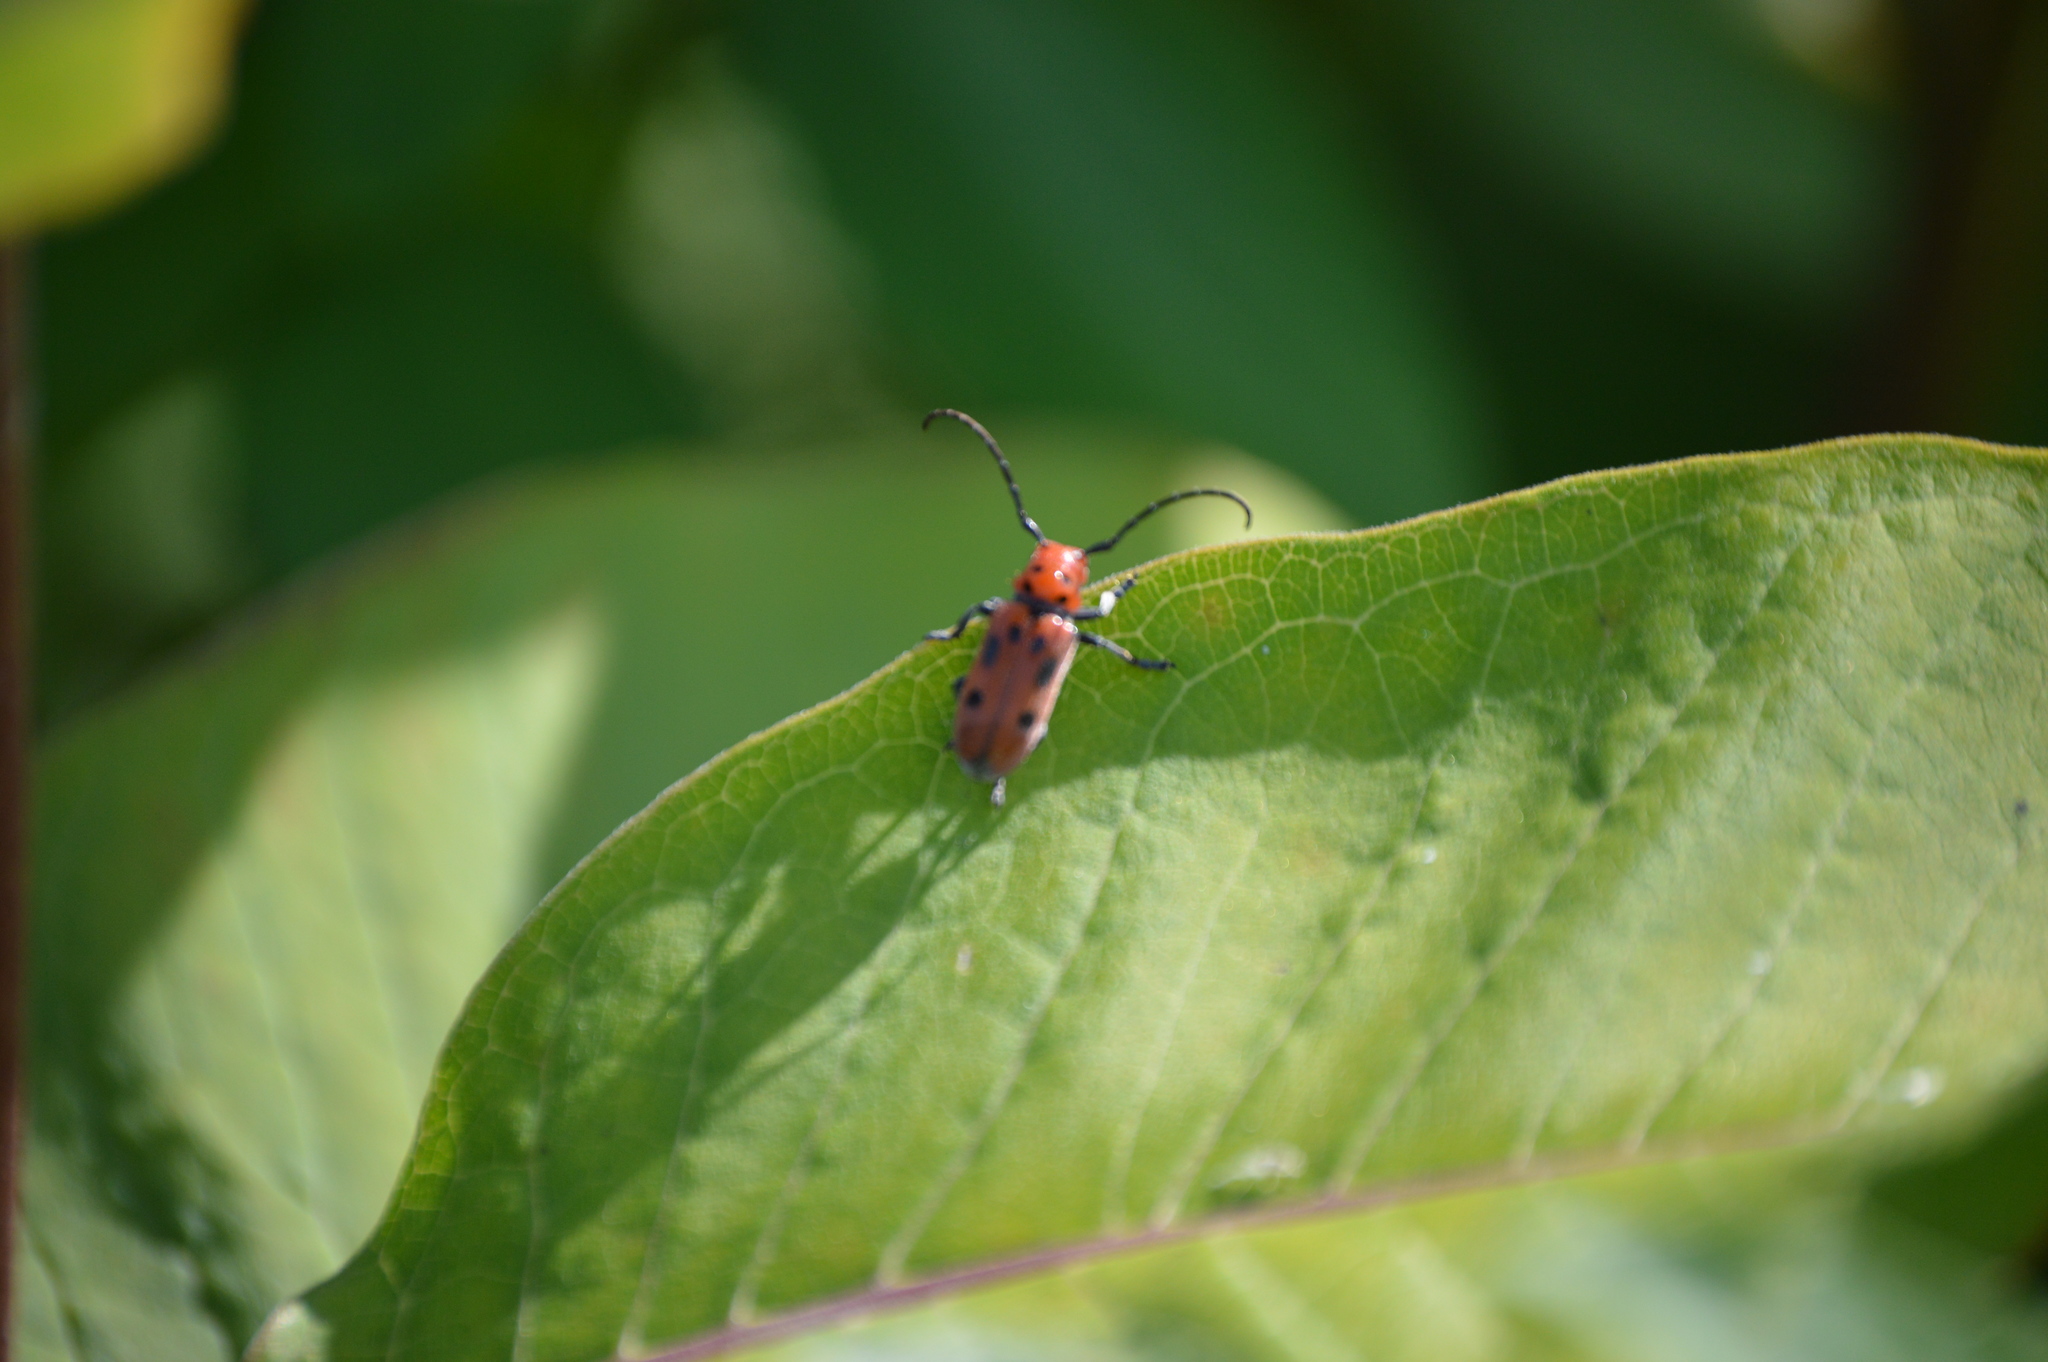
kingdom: Animalia
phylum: Arthropoda
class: Insecta
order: Coleoptera
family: Cerambycidae
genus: Tetraopes
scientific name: Tetraopes tetrophthalmus
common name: Red milkweed beetle
